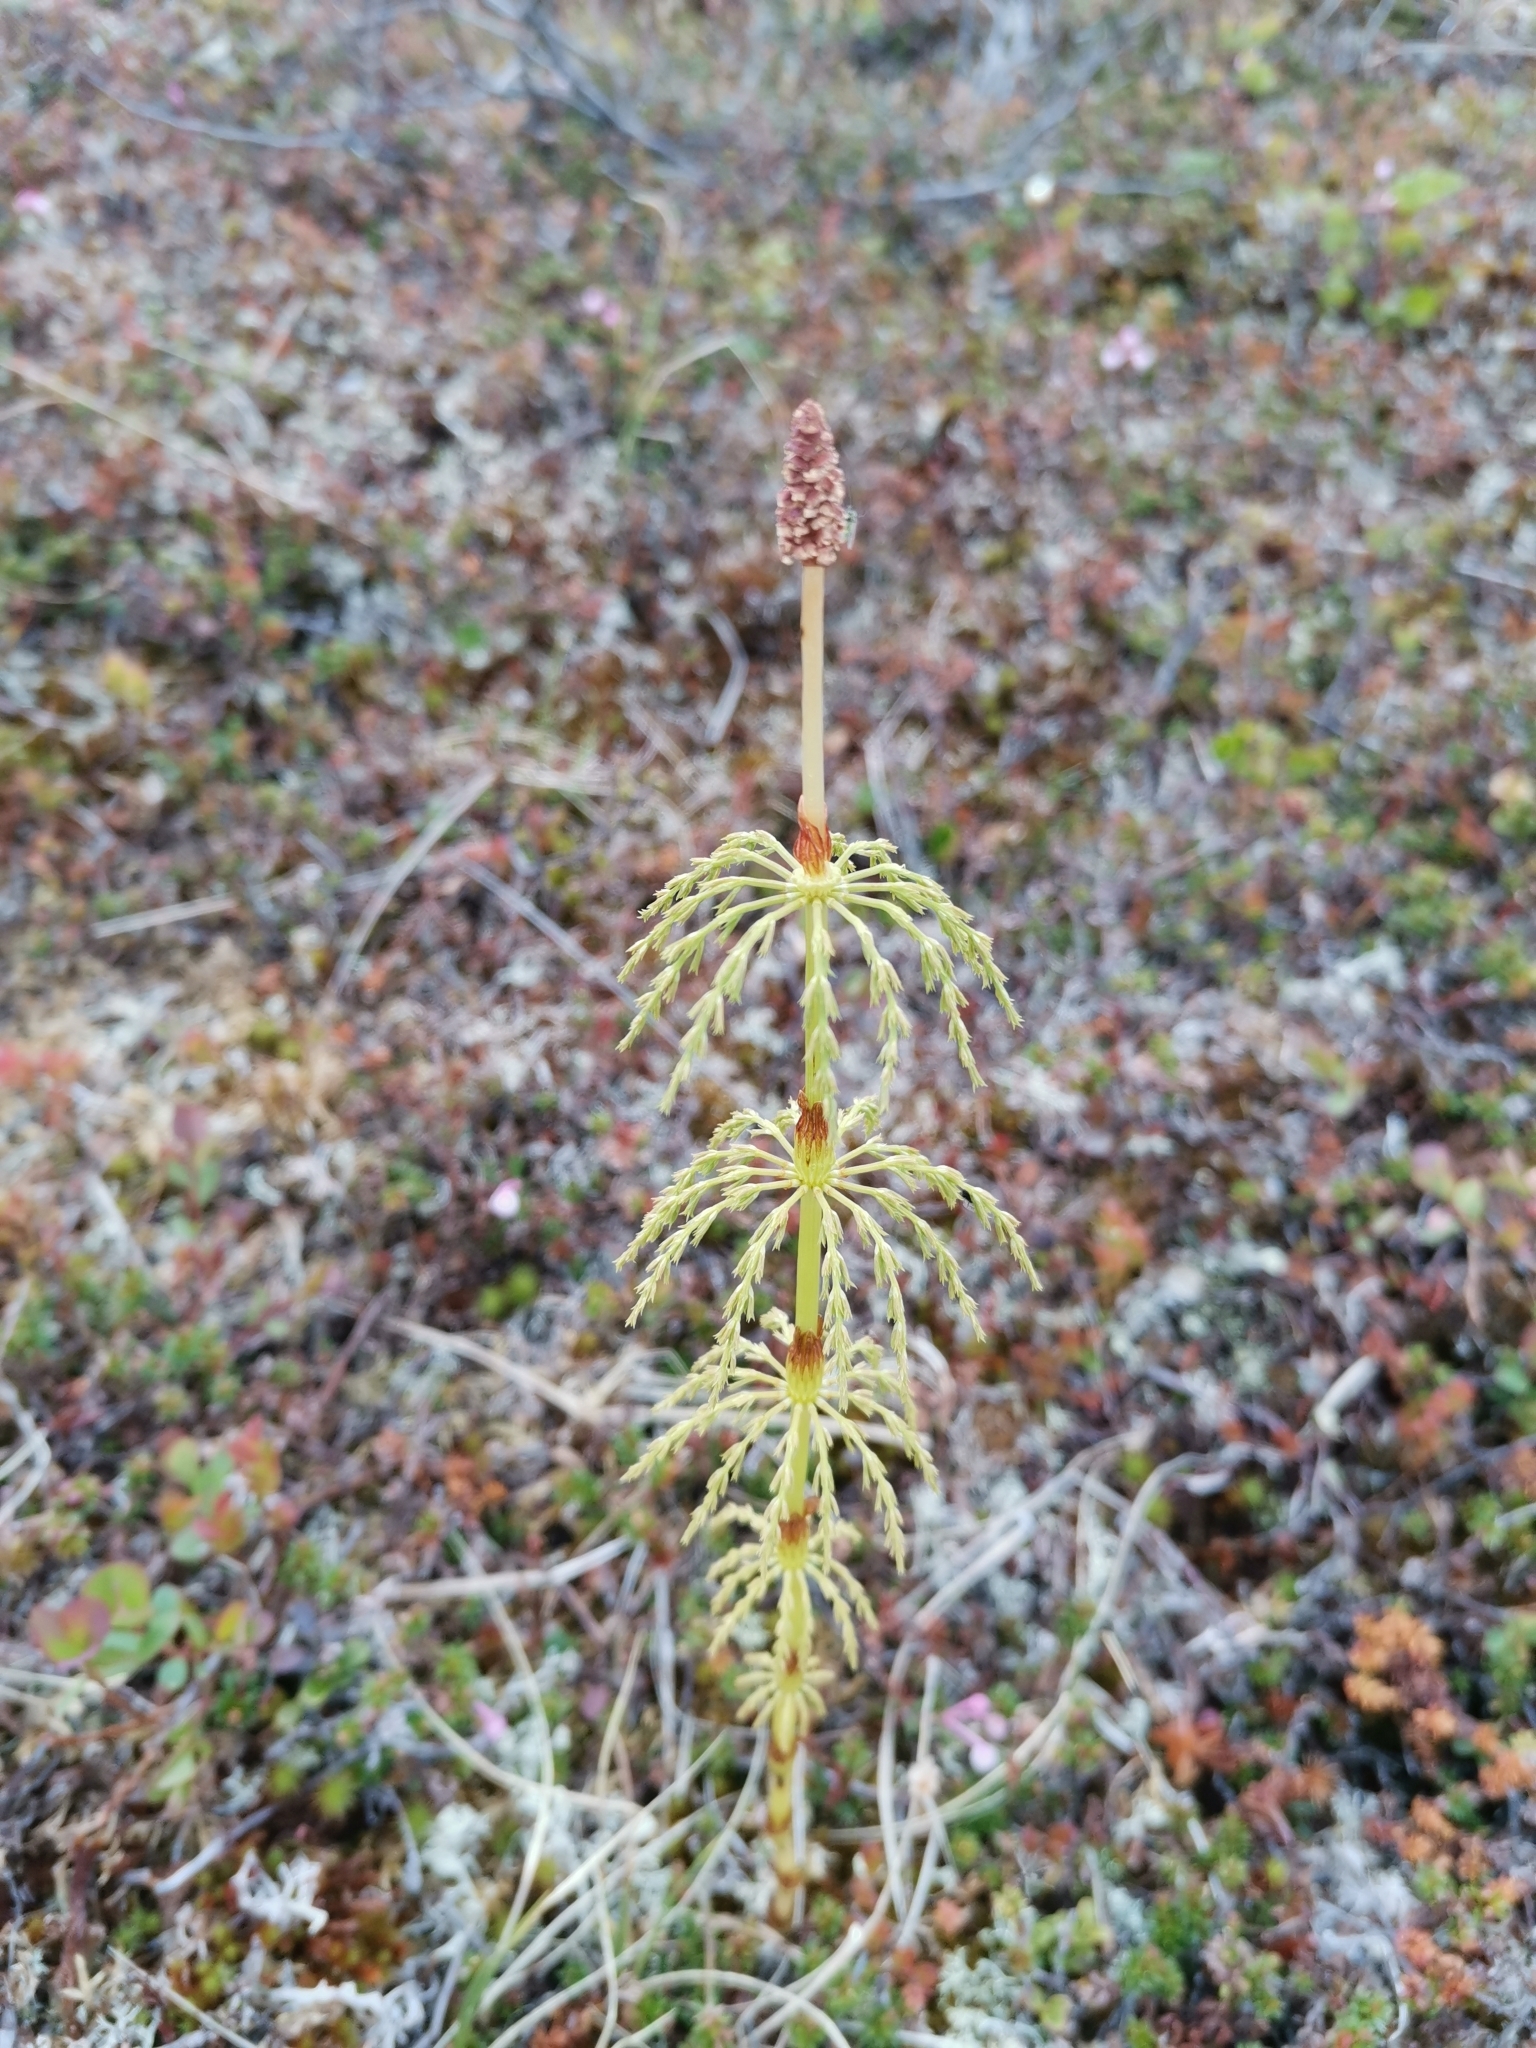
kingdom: Plantae
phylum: Tracheophyta
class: Polypodiopsida
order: Equisetales
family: Equisetaceae
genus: Equisetum
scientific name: Equisetum sylvaticum
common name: Wood horsetail
